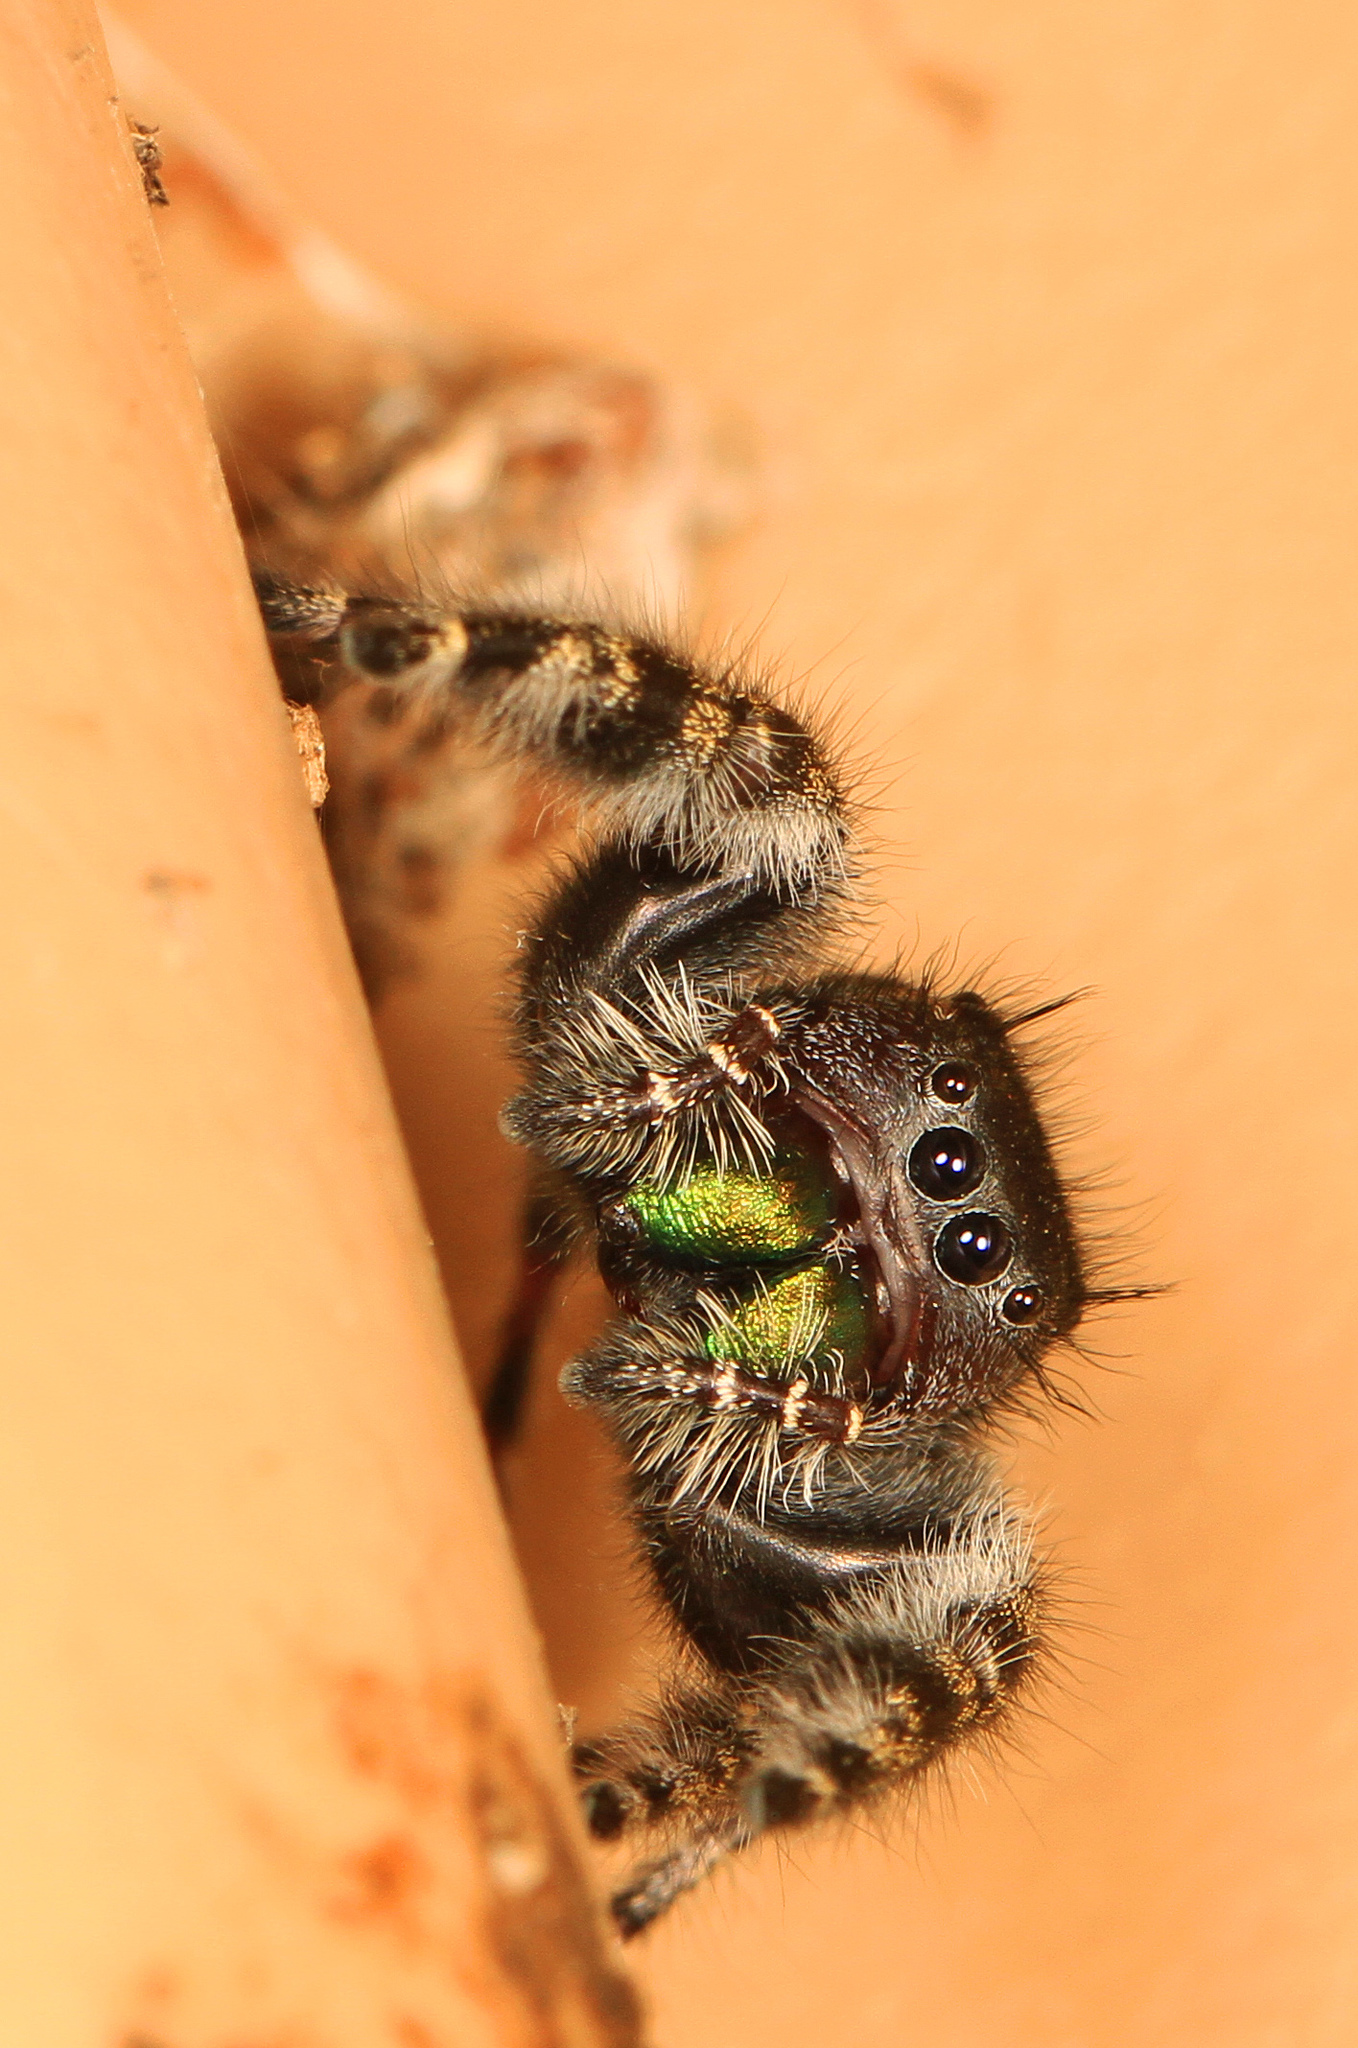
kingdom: Animalia
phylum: Arthropoda
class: Arachnida
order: Araneae
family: Salticidae
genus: Phidippus
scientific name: Phidippus audax
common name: Bold jumper
